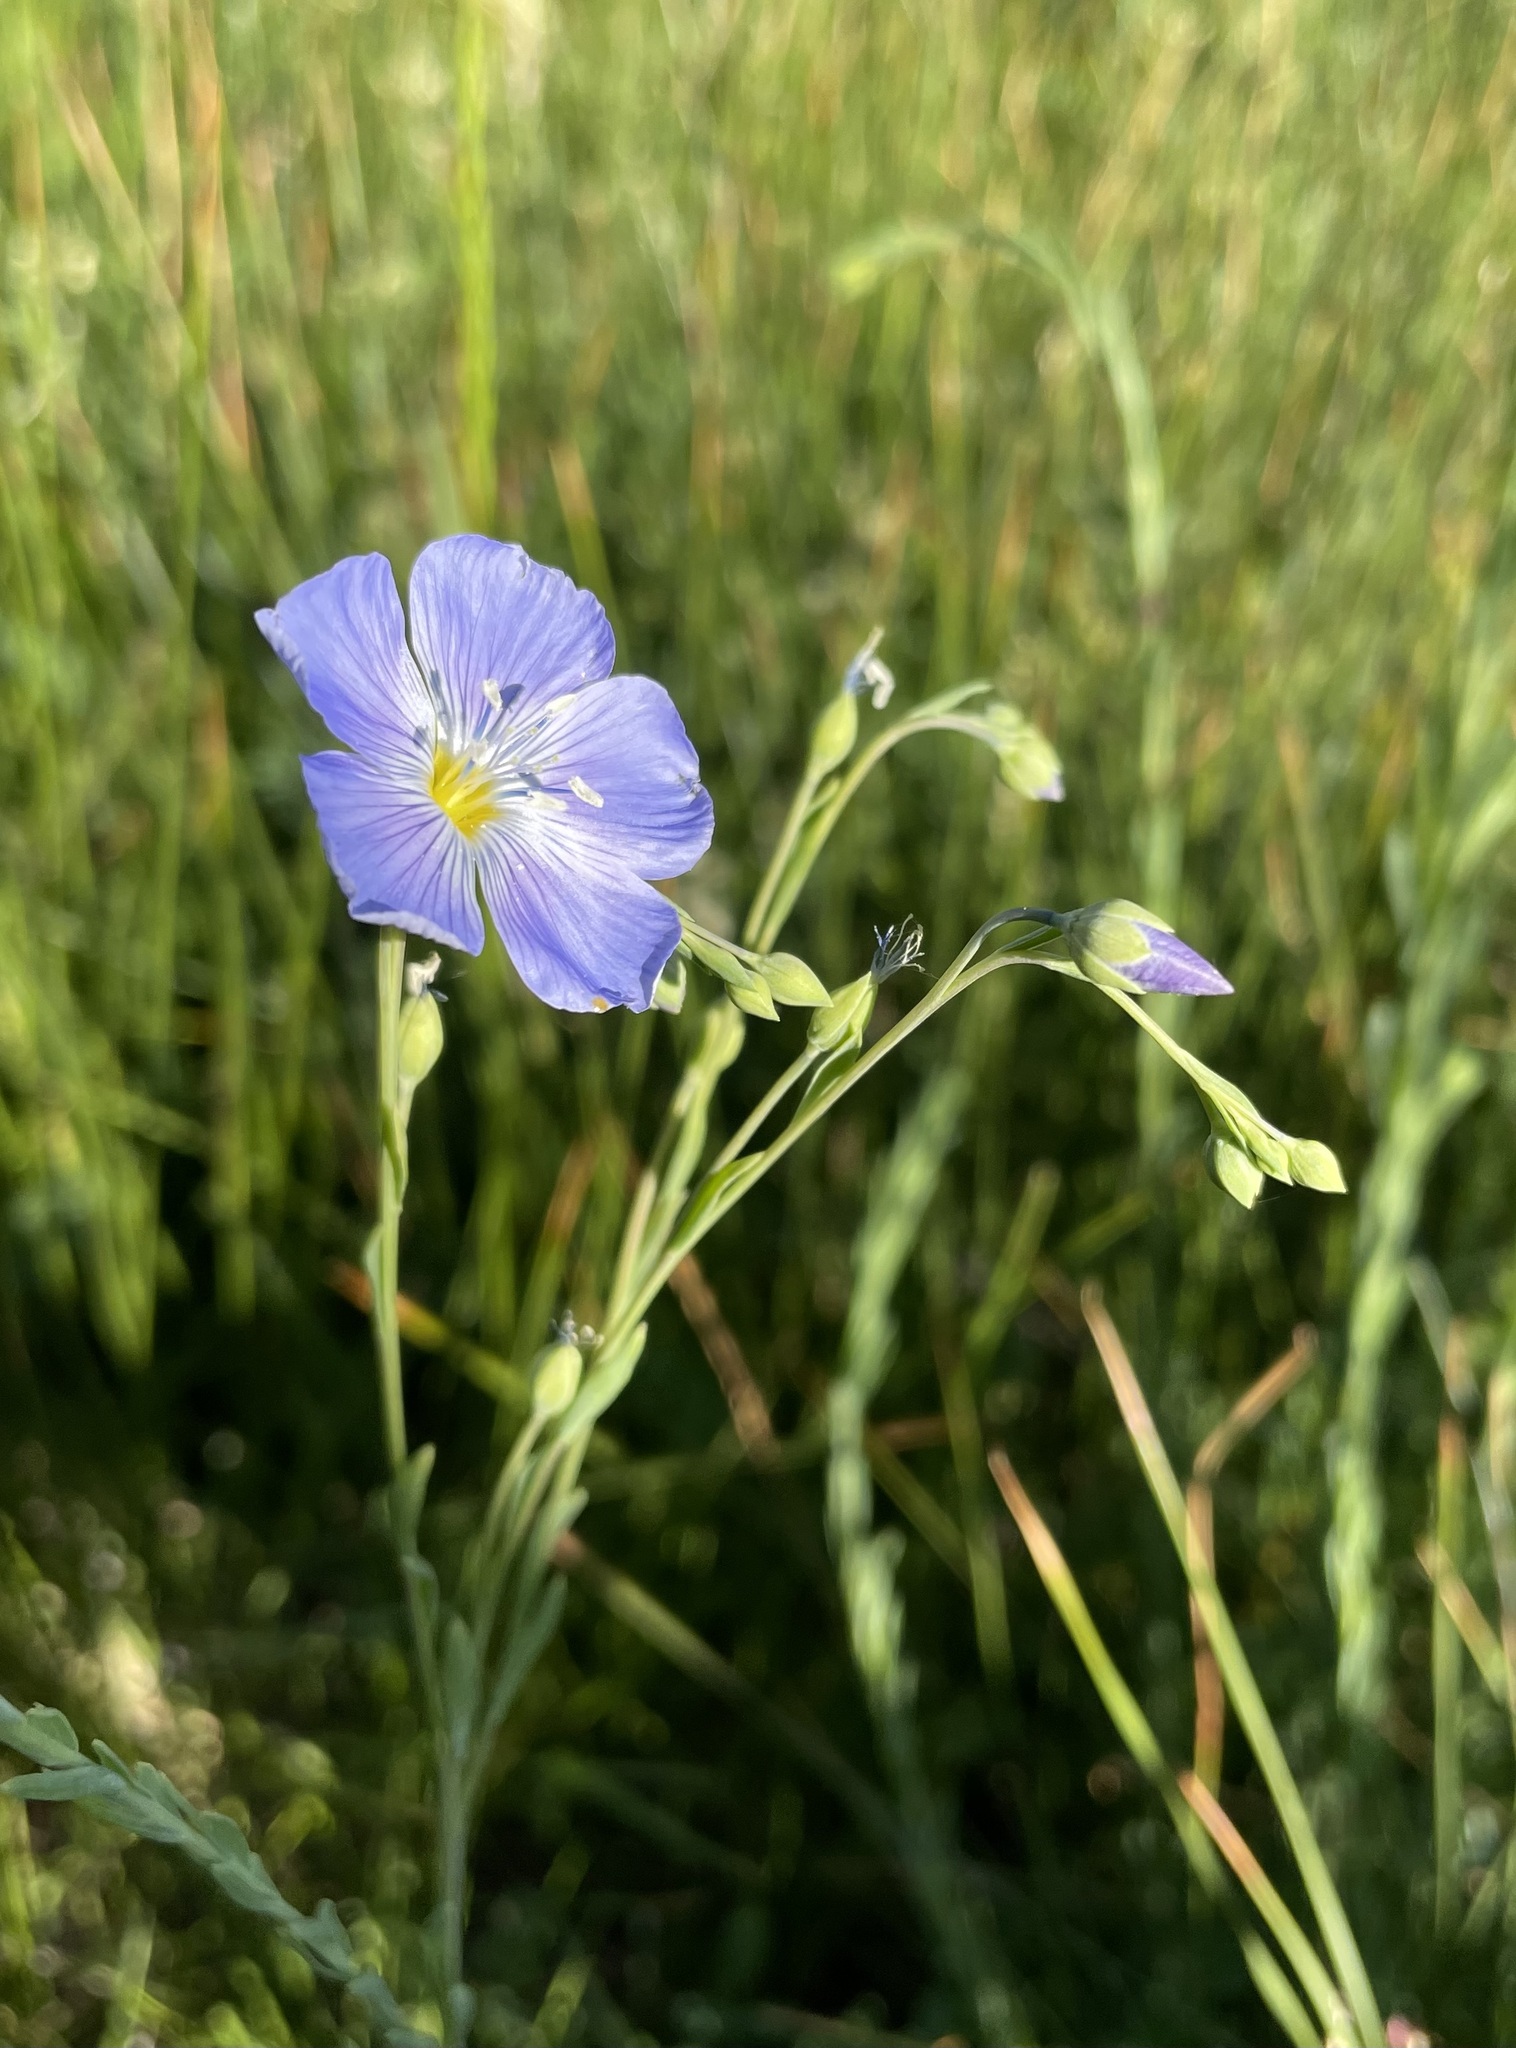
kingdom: Plantae
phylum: Tracheophyta
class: Magnoliopsida
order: Malpighiales
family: Linaceae
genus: Linum
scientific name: Linum lewisii
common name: Prairie flax
